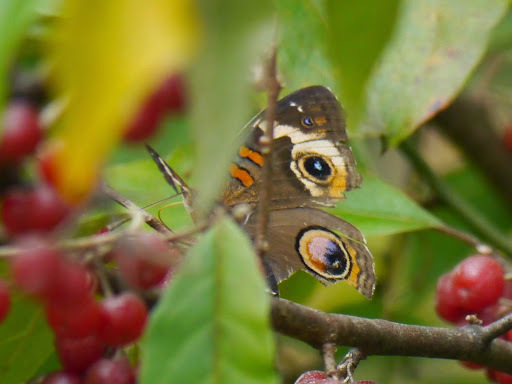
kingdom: Animalia
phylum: Arthropoda
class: Insecta
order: Lepidoptera
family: Nymphalidae
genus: Junonia
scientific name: Junonia coenia
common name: Common buckeye
